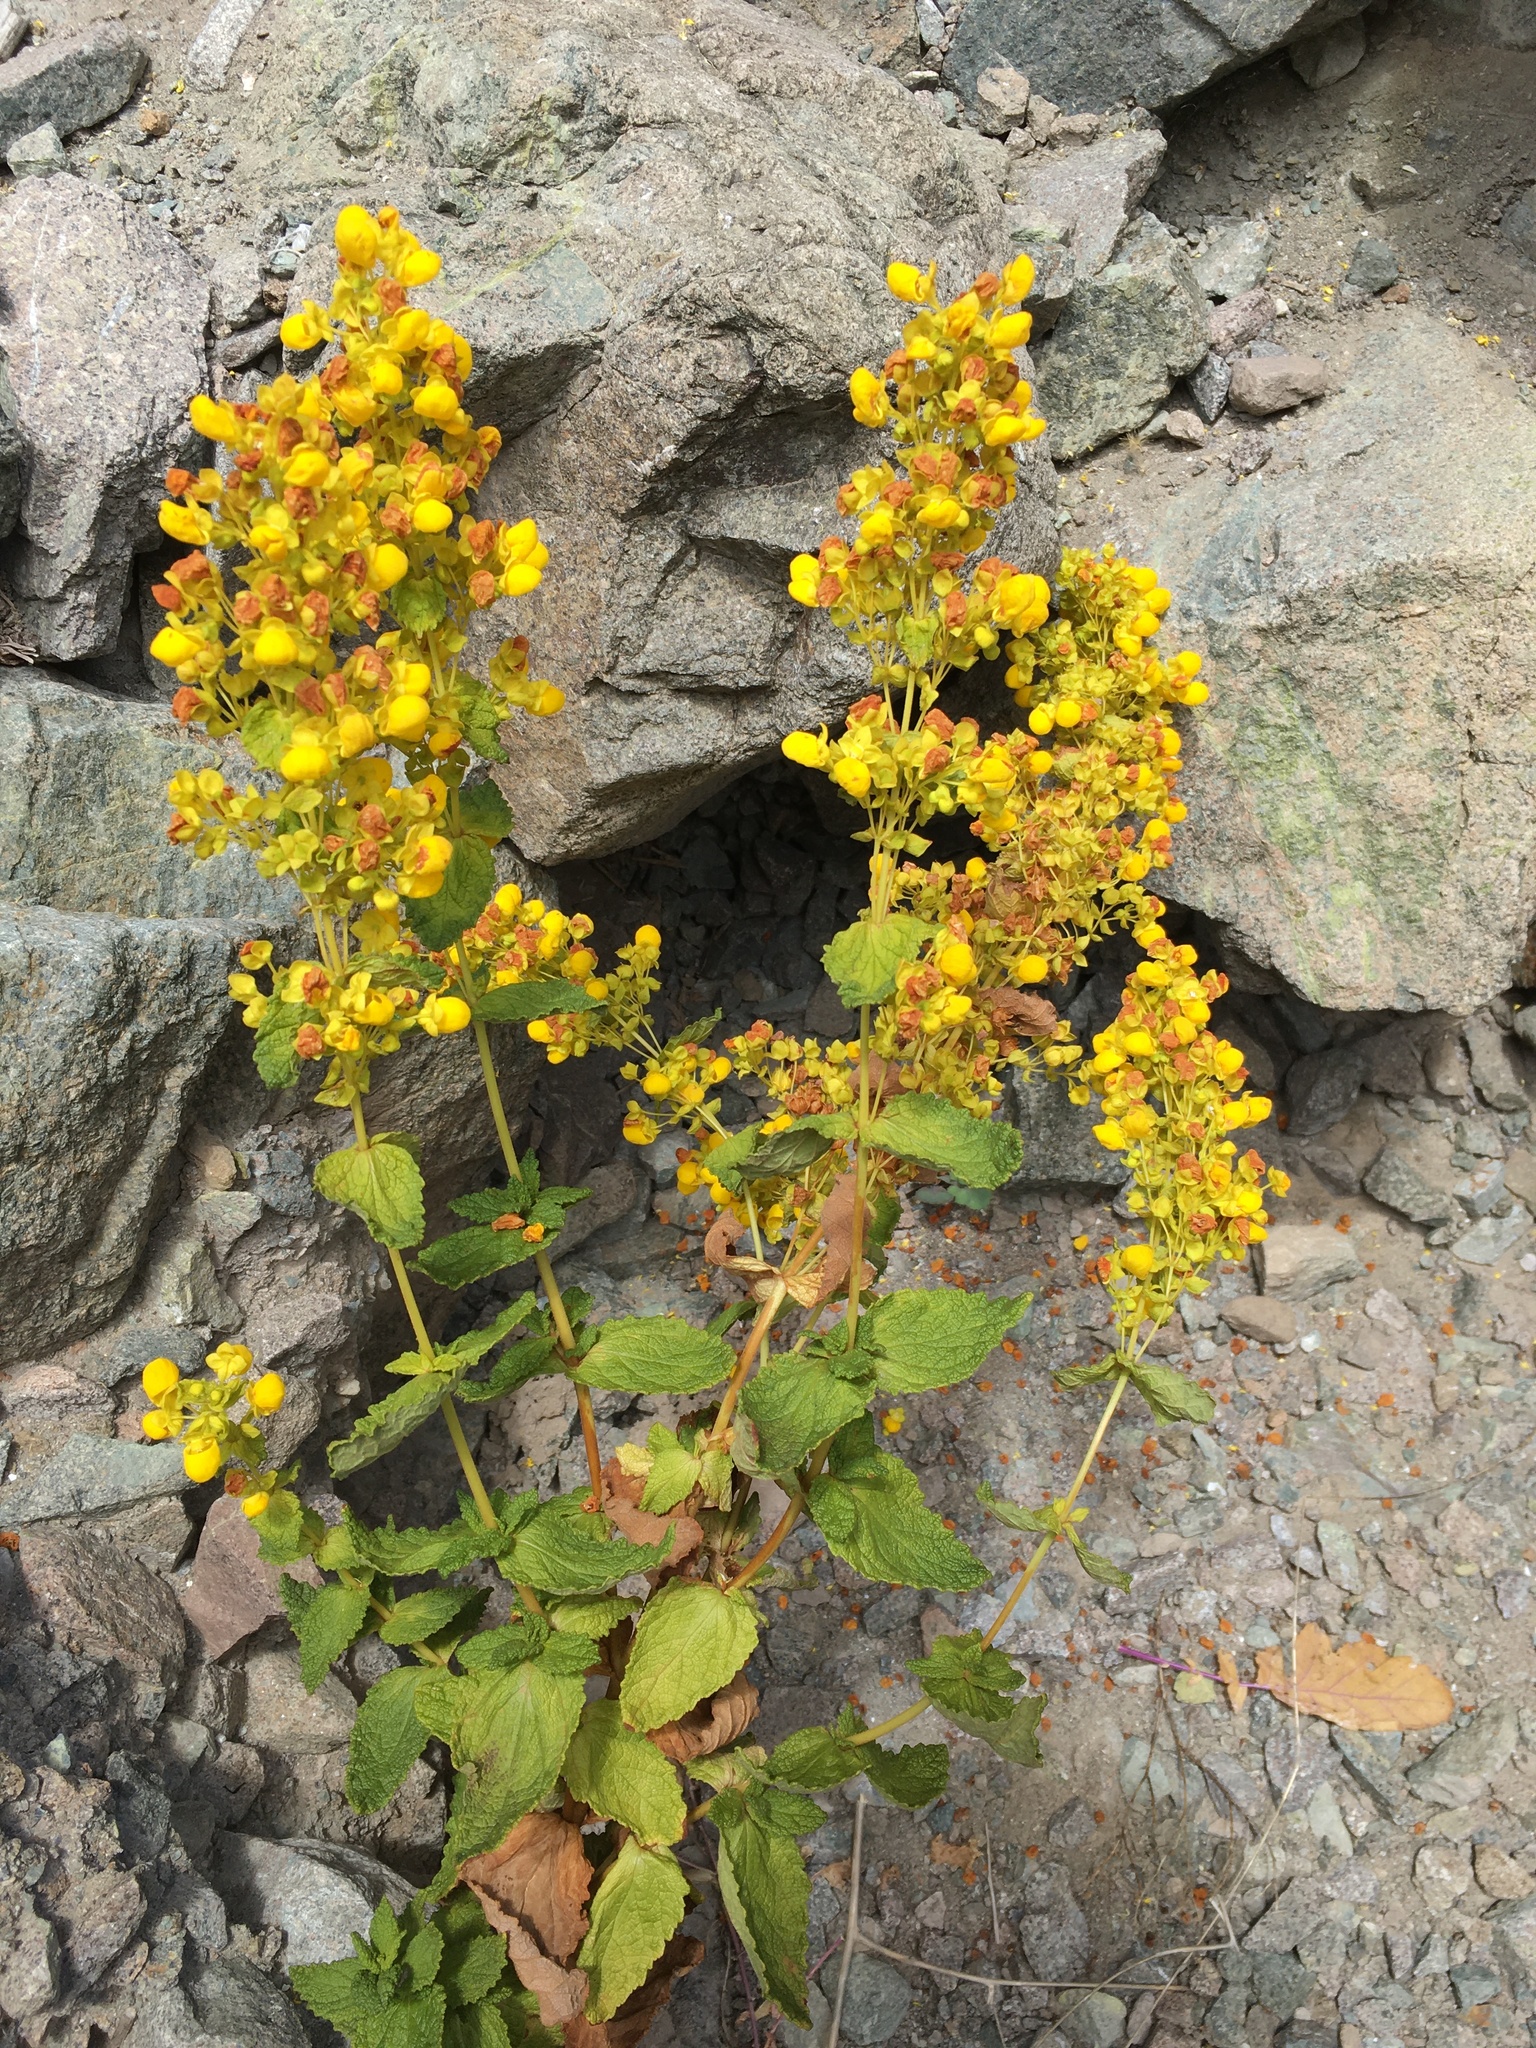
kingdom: Plantae
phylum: Tracheophyta
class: Magnoliopsida
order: Lamiales
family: Calceolariaceae
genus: Calceolaria
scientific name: Calceolaria paposana
